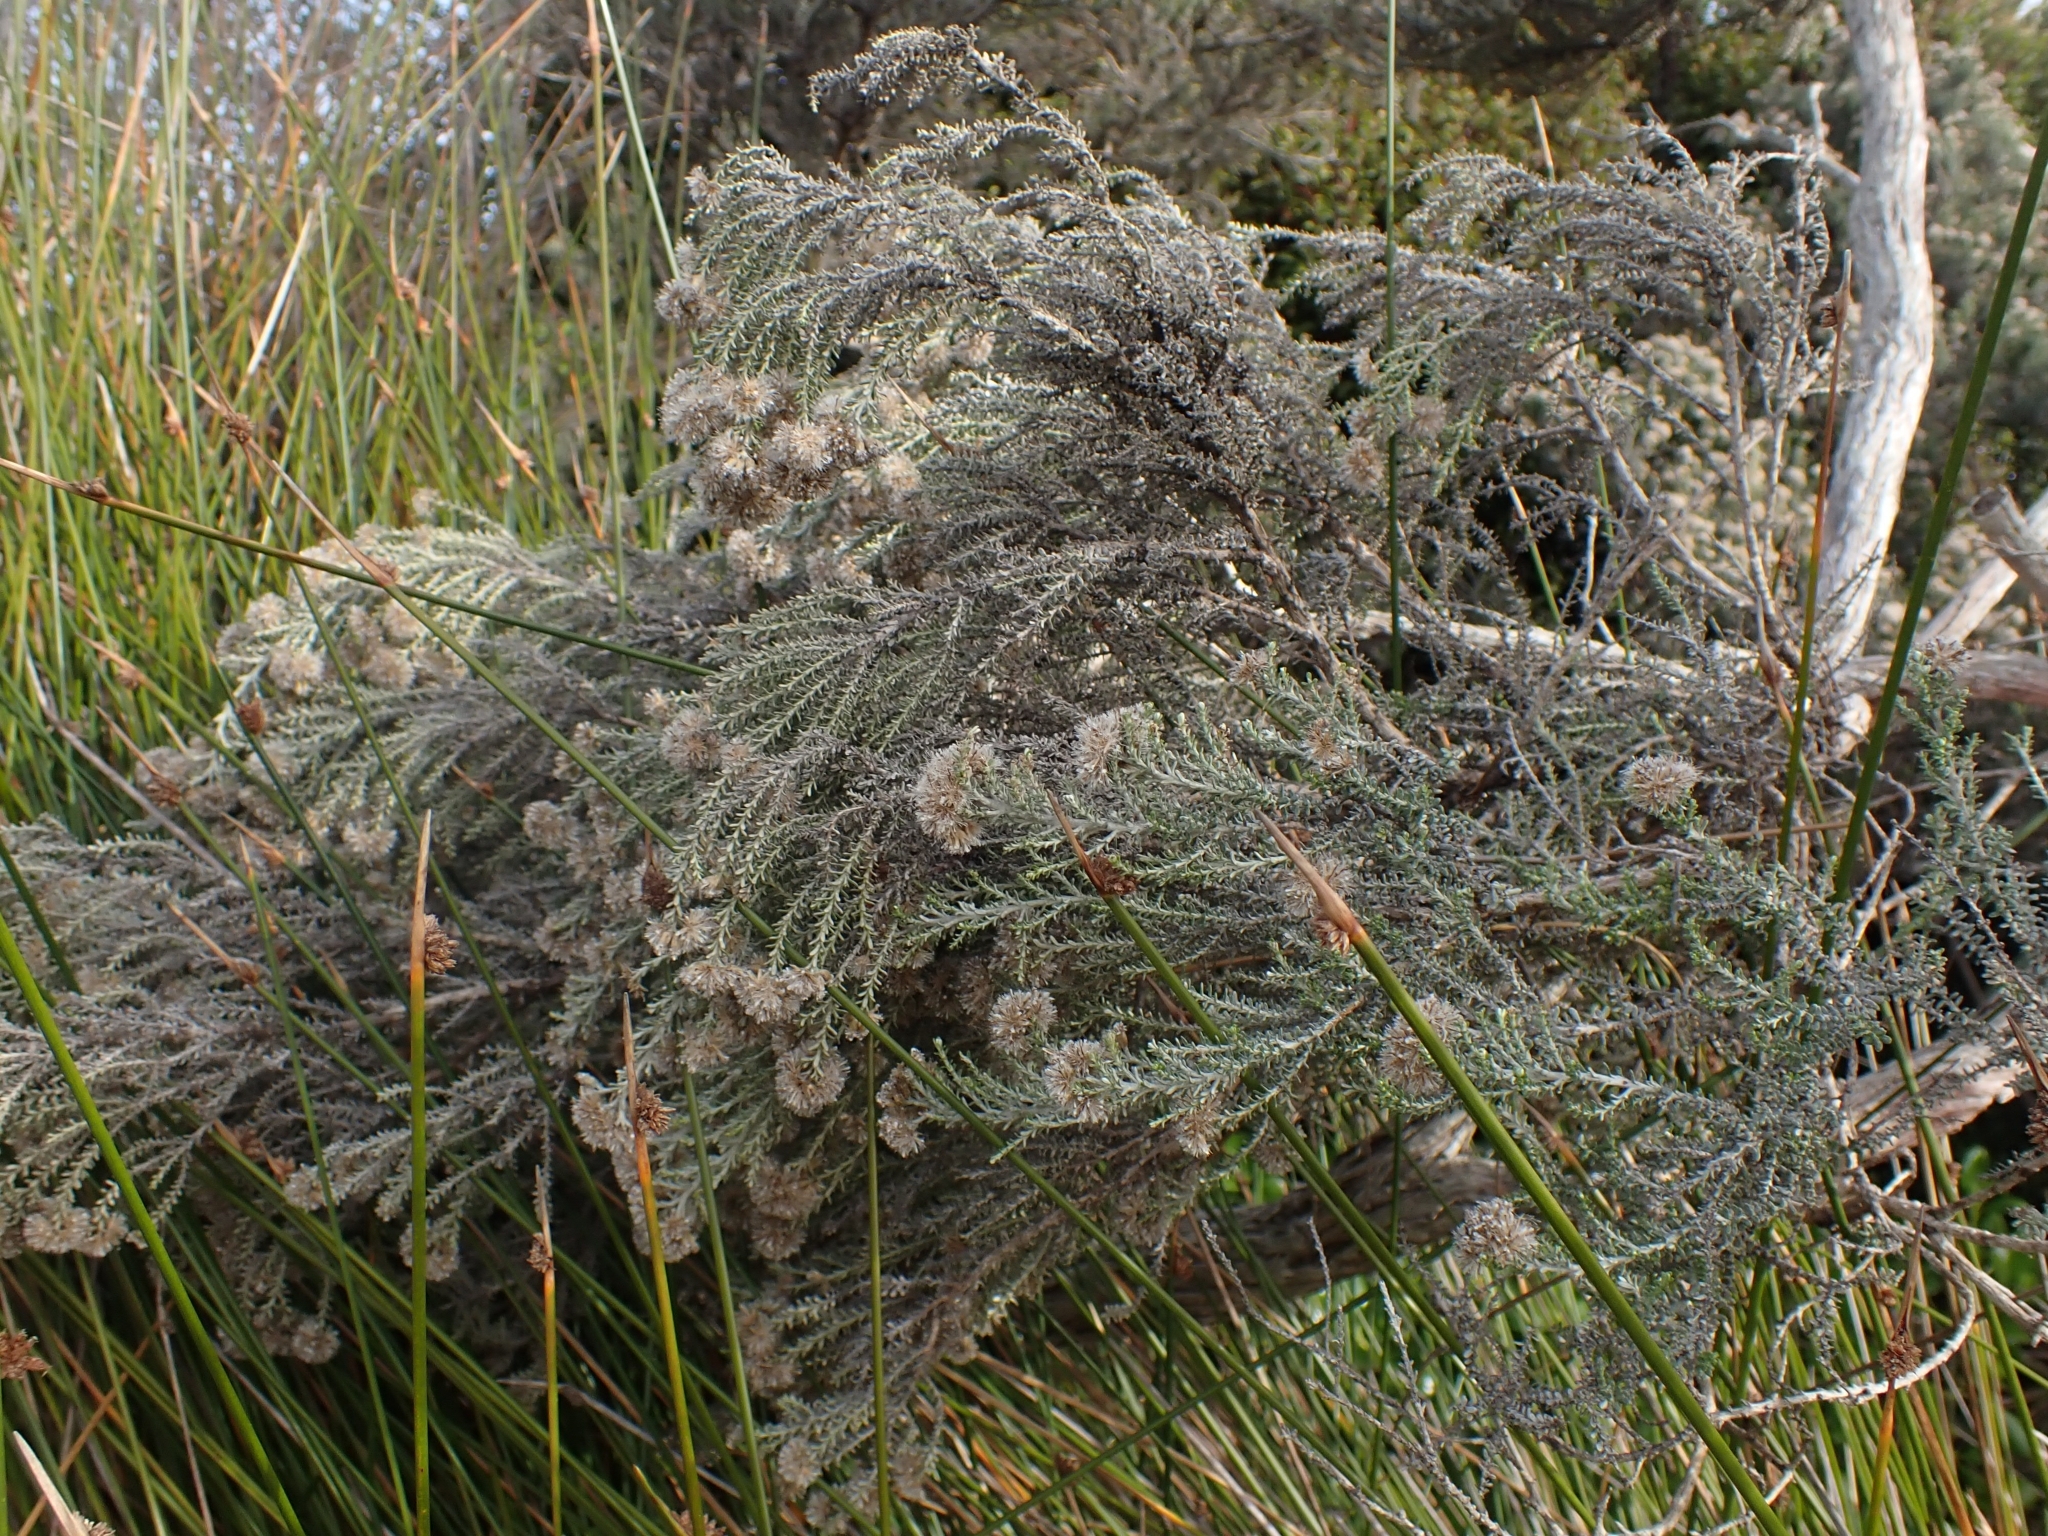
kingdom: Plantae
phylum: Tracheophyta
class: Magnoliopsida
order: Asterales
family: Asteraceae
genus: Ozothamnus
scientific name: Ozothamnus leptophyllus
